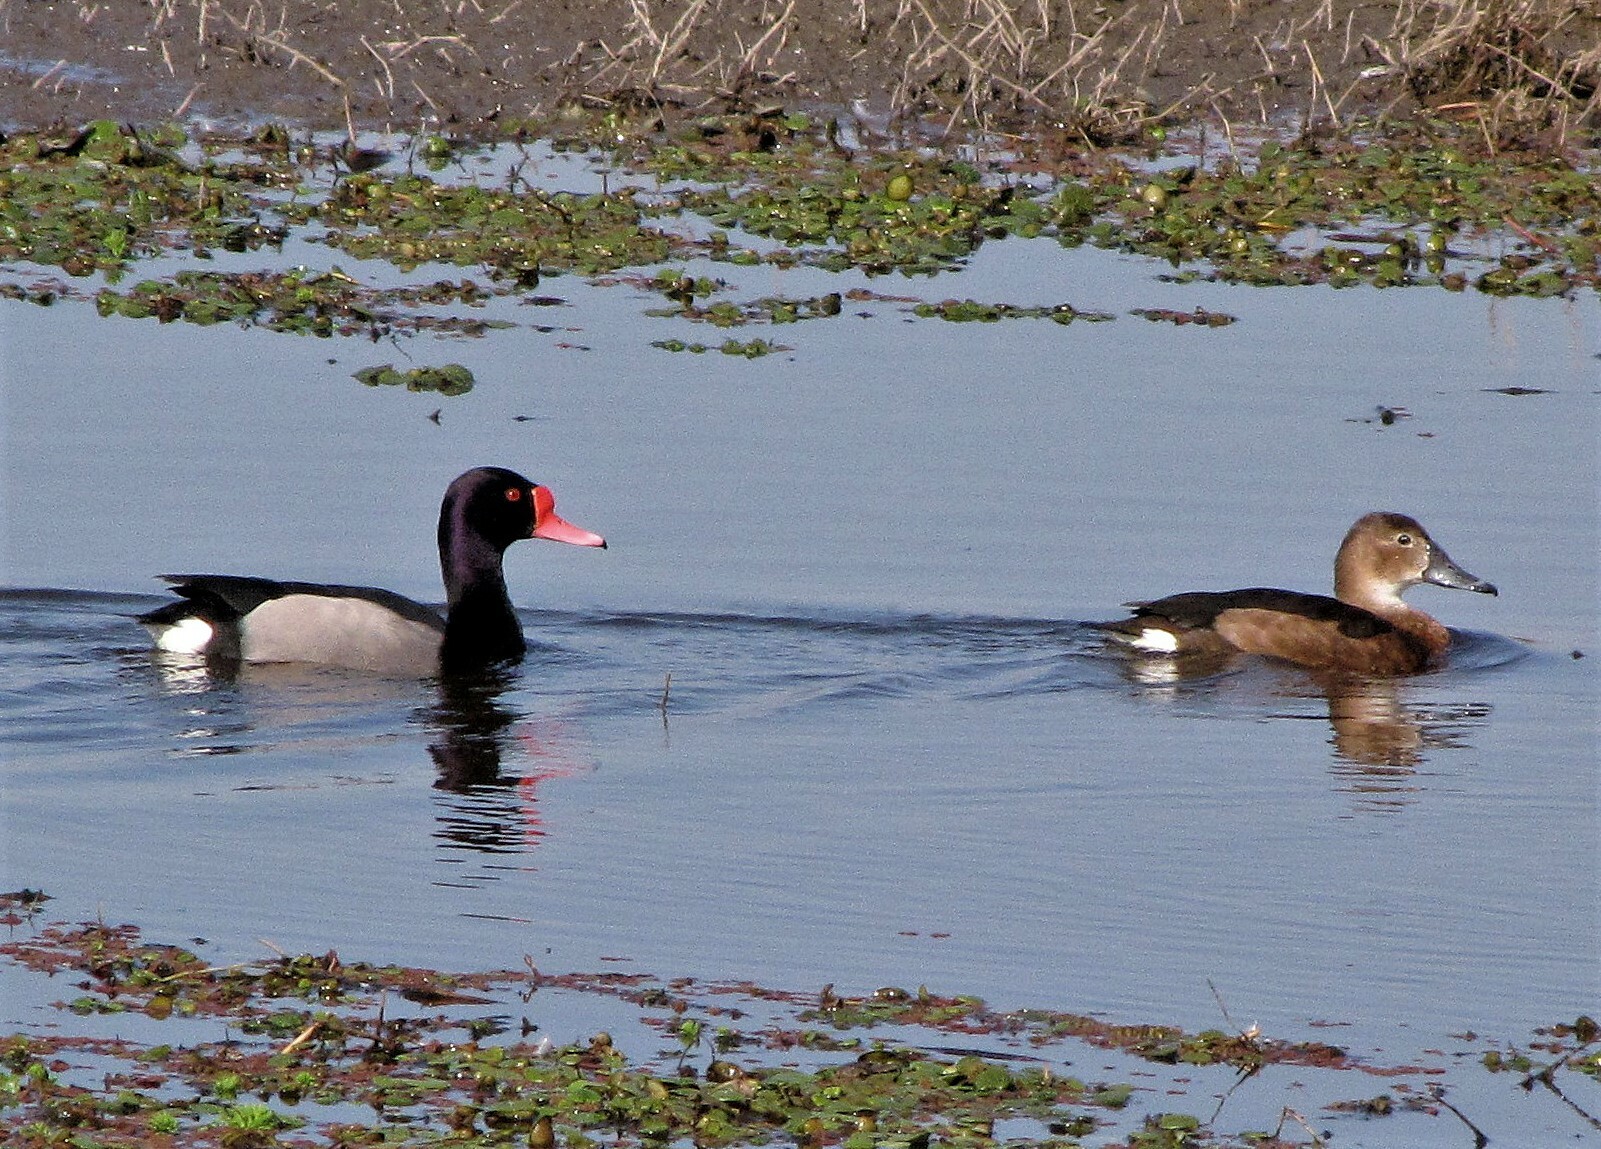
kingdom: Animalia
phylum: Chordata
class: Aves
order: Anseriformes
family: Anatidae
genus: Netta
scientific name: Netta peposaca
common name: Rosy-billed pochard
